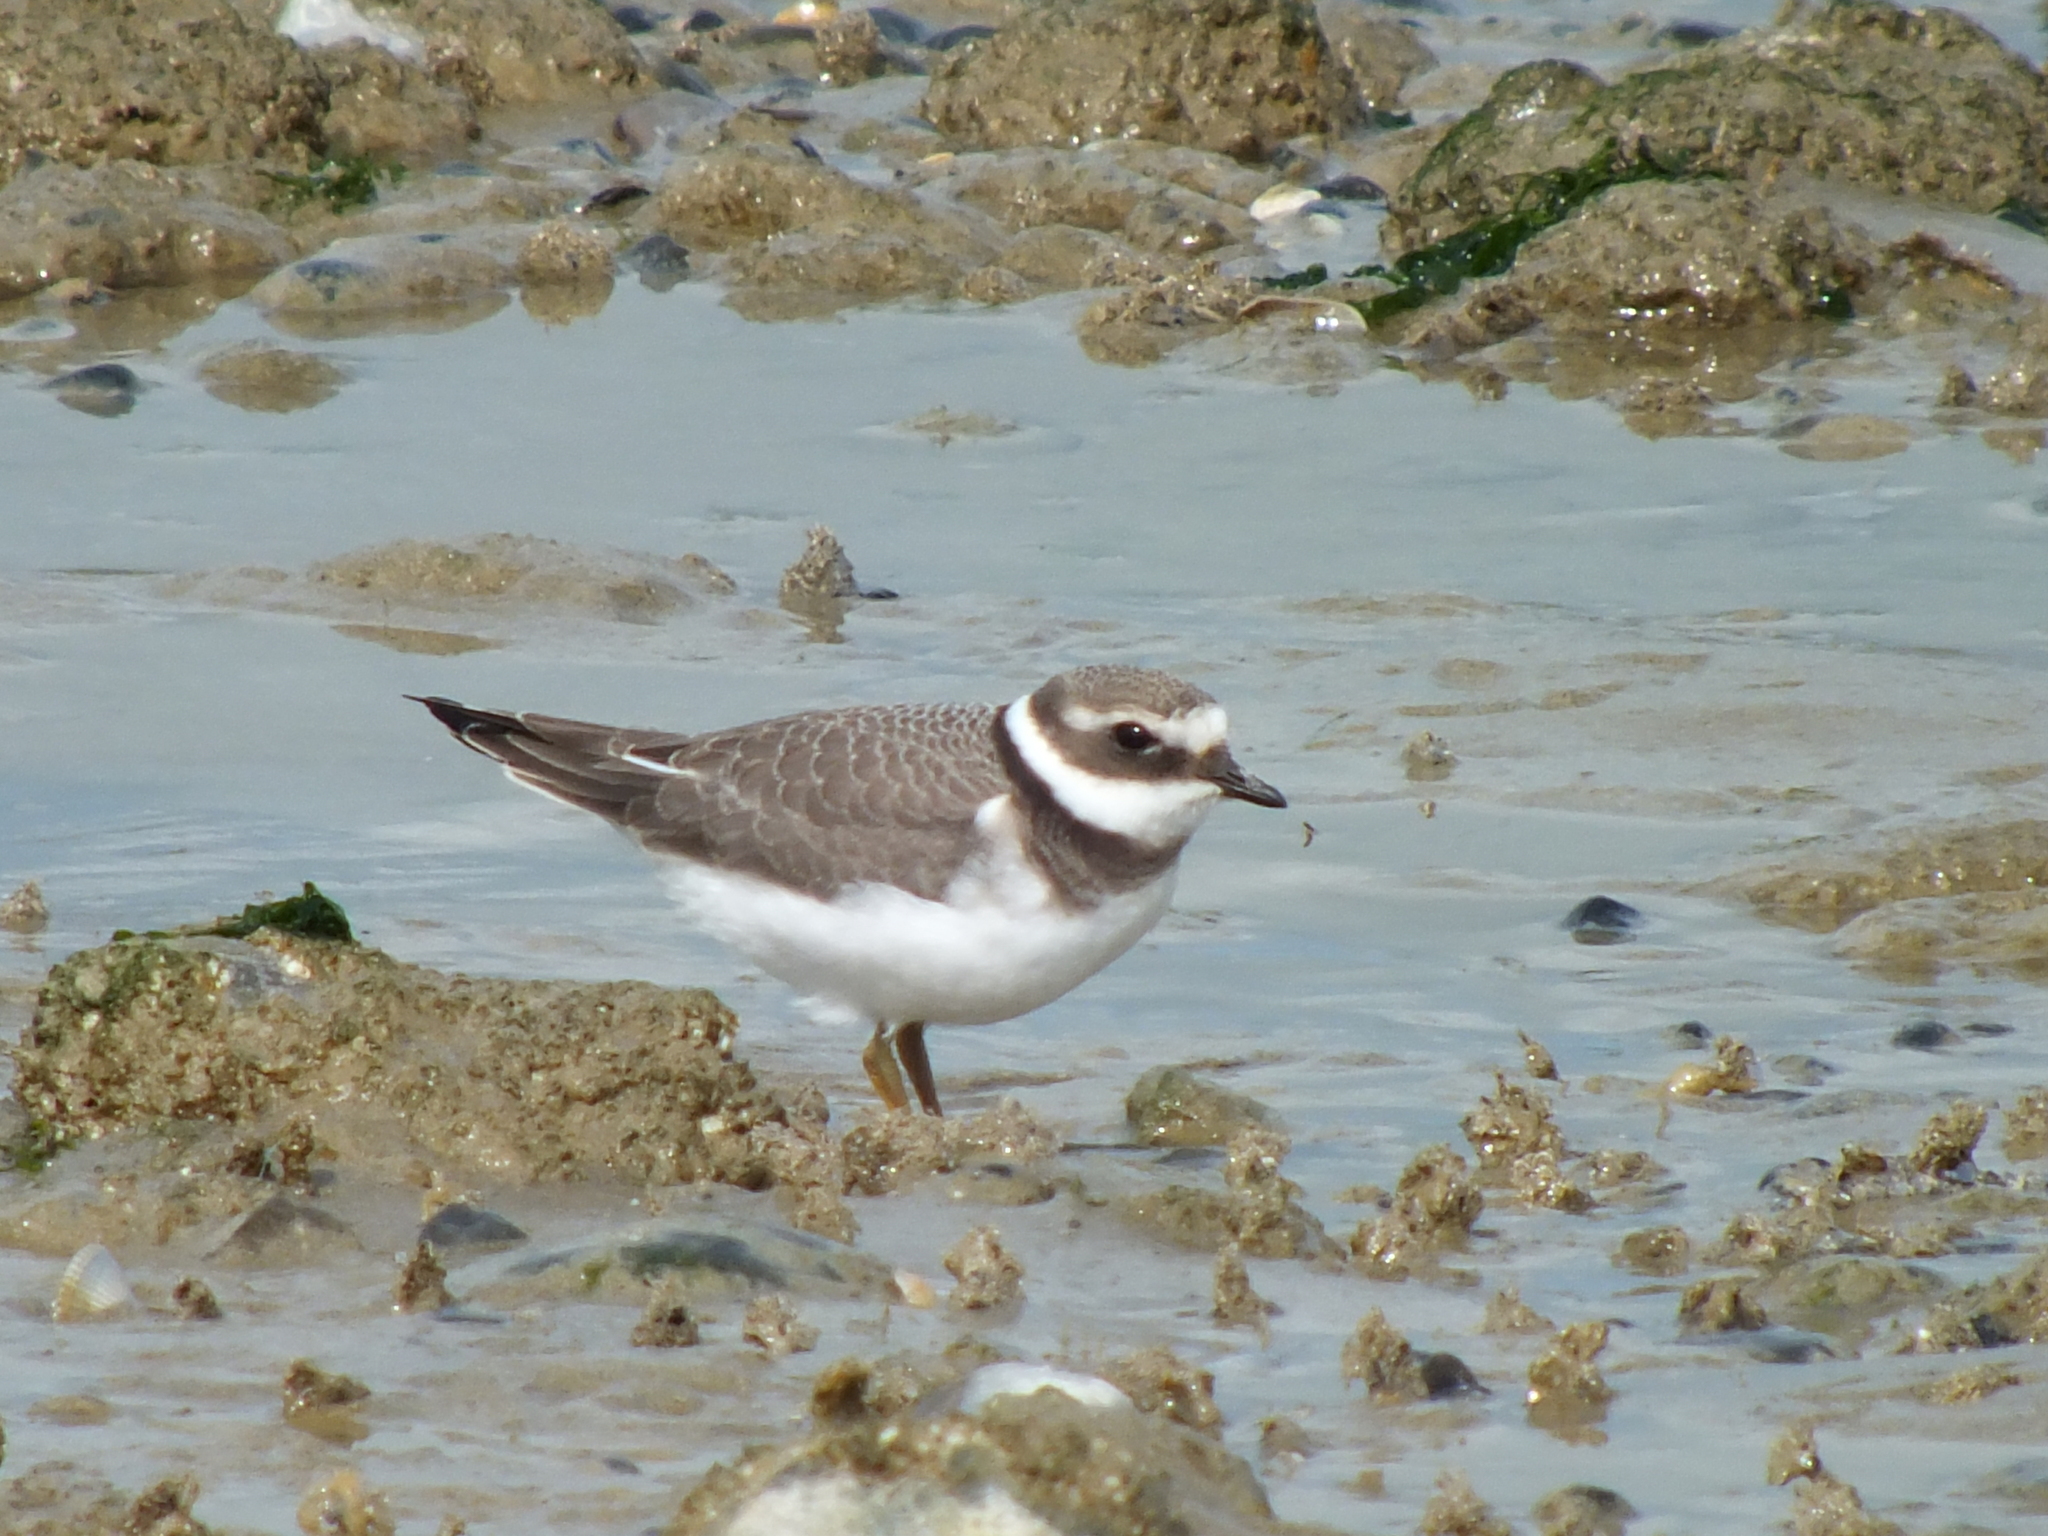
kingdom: Animalia
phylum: Chordata
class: Aves
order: Charadriiformes
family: Charadriidae
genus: Charadrius
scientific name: Charadrius hiaticula
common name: Common ringed plover
